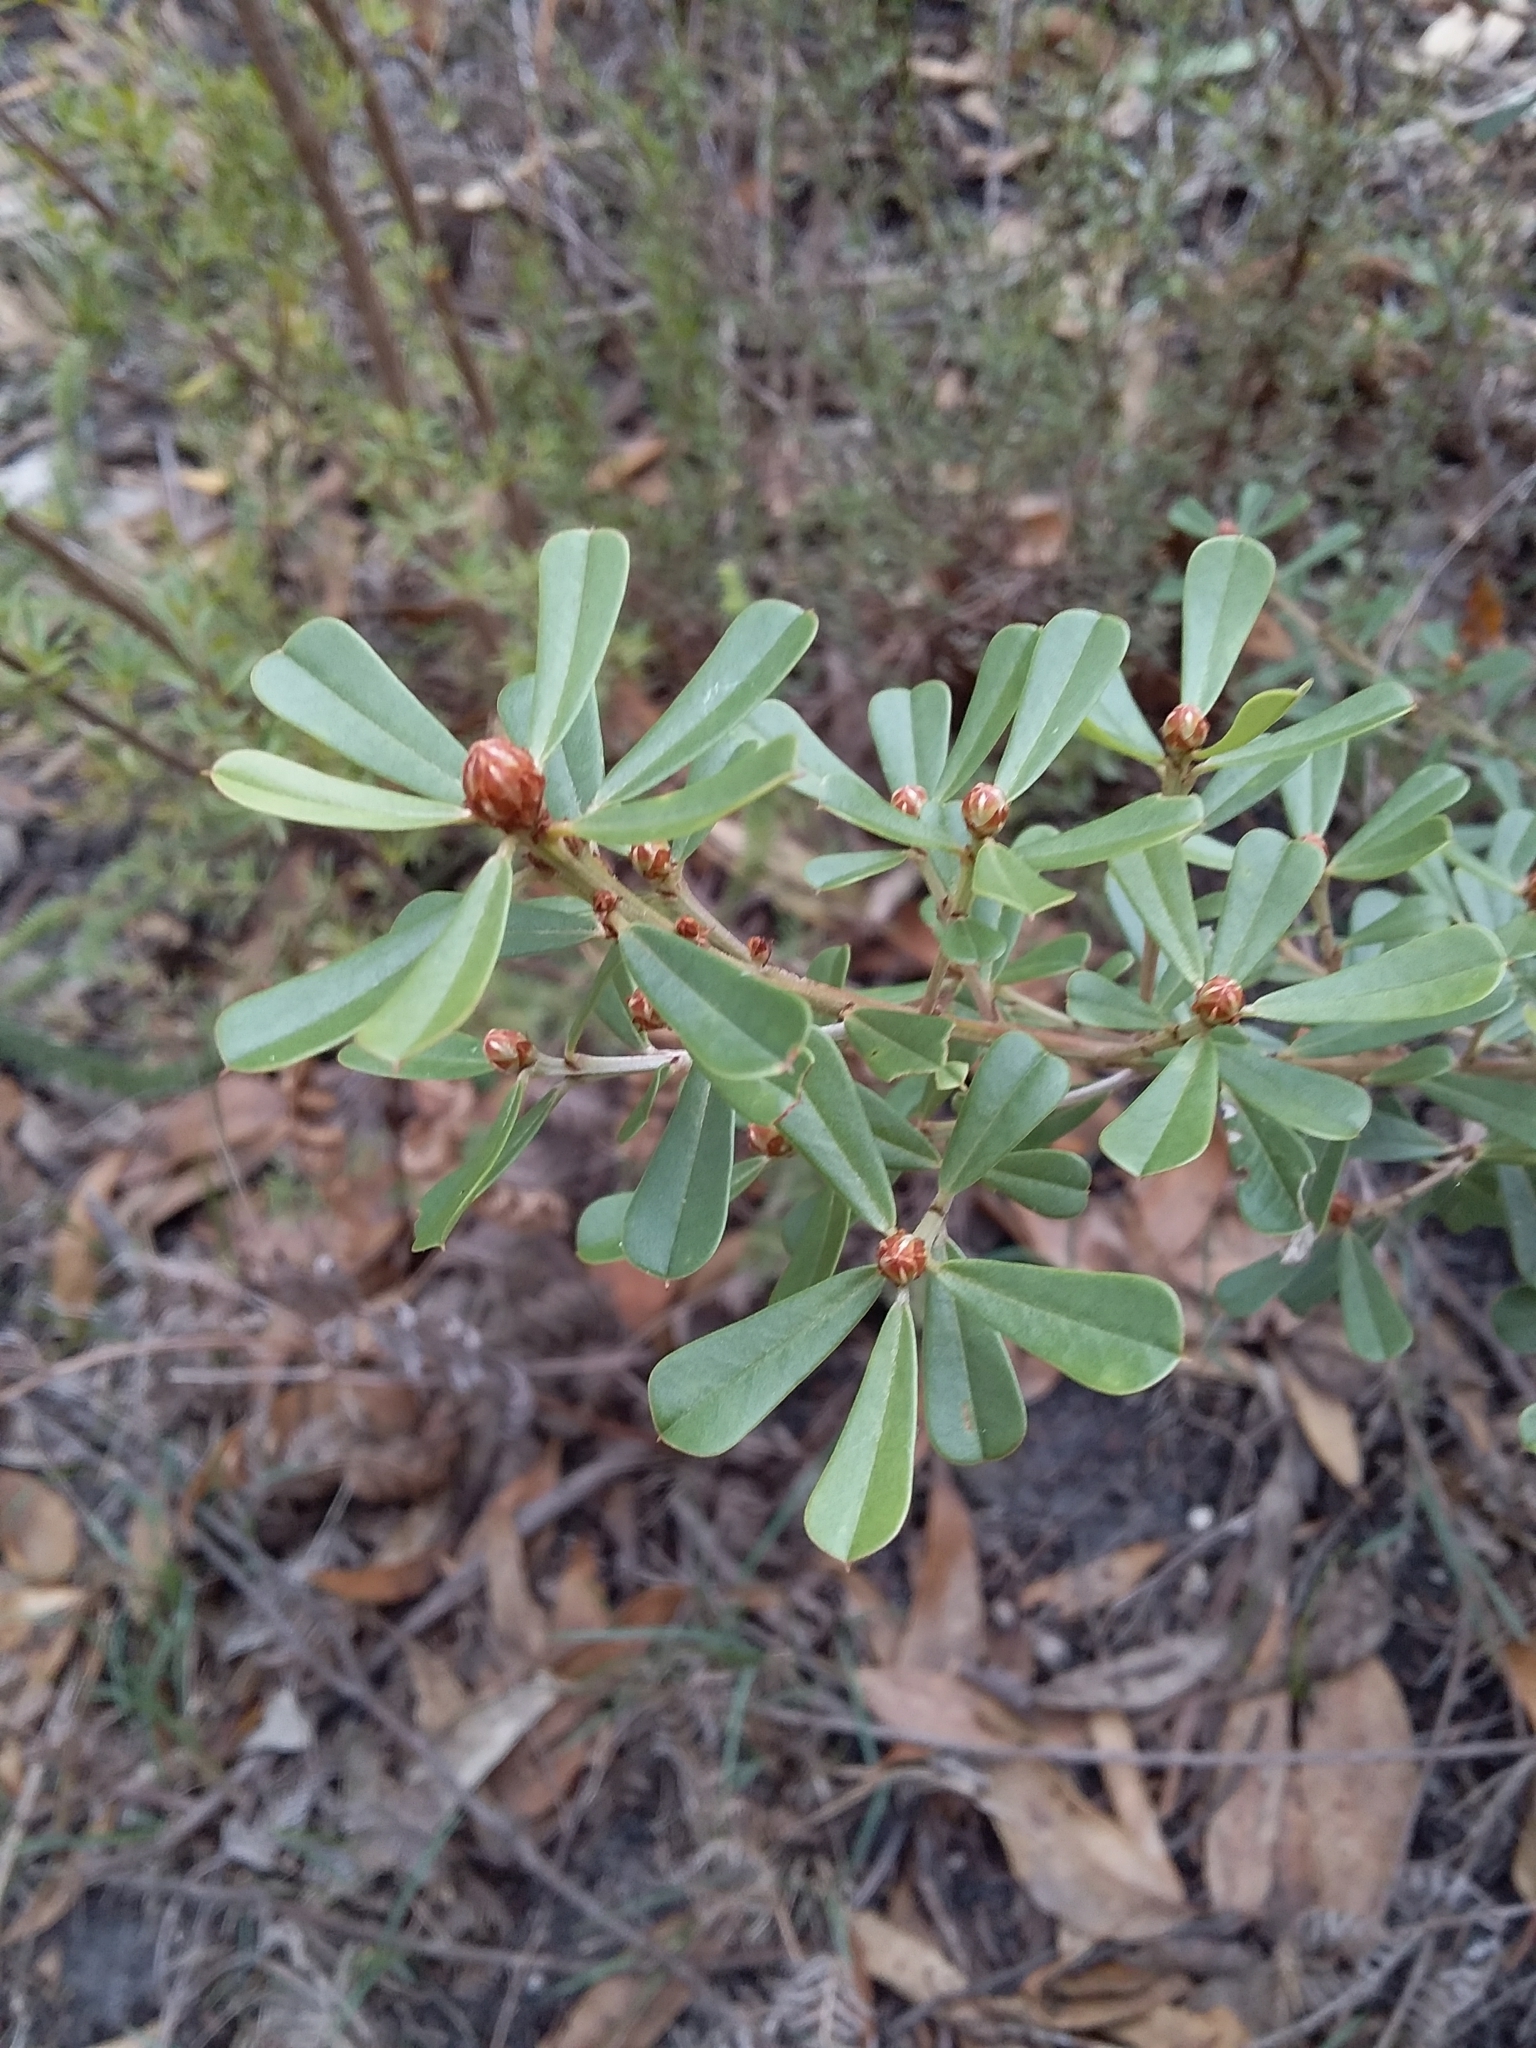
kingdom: Plantae
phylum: Tracheophyta
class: Magnoliopsida
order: Fabales
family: Fabaceae
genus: Pultenaea
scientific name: Pultenaea daphnoides
